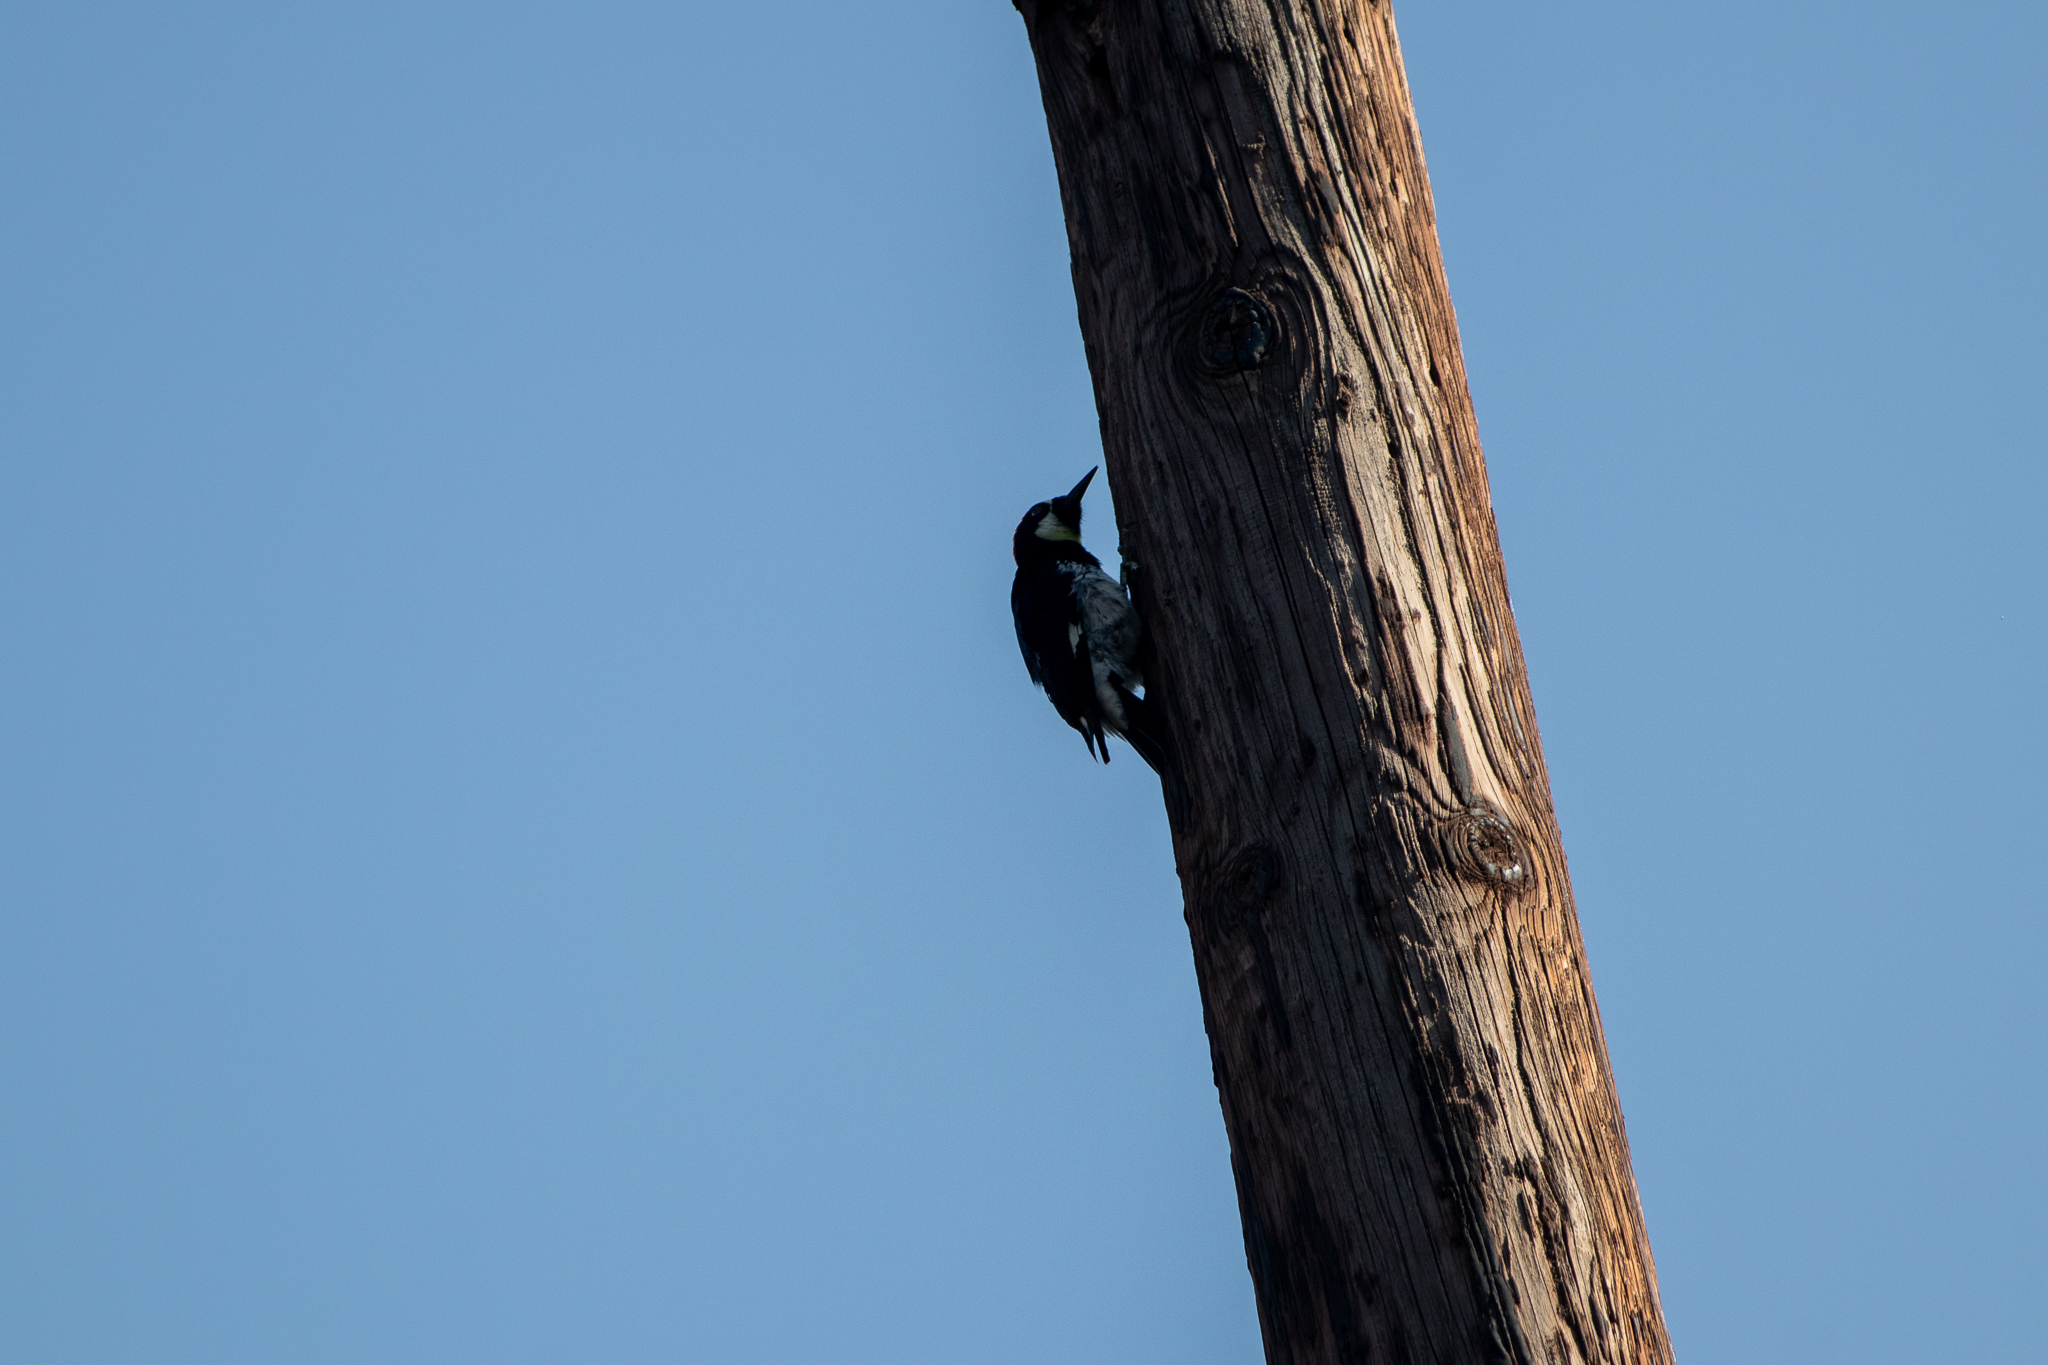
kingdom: Animalia
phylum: Chordata
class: Aves
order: Piciformes
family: Picidae
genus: Melanerpes
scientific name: Melanerpes formicivorus
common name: Acorn woodpecker
